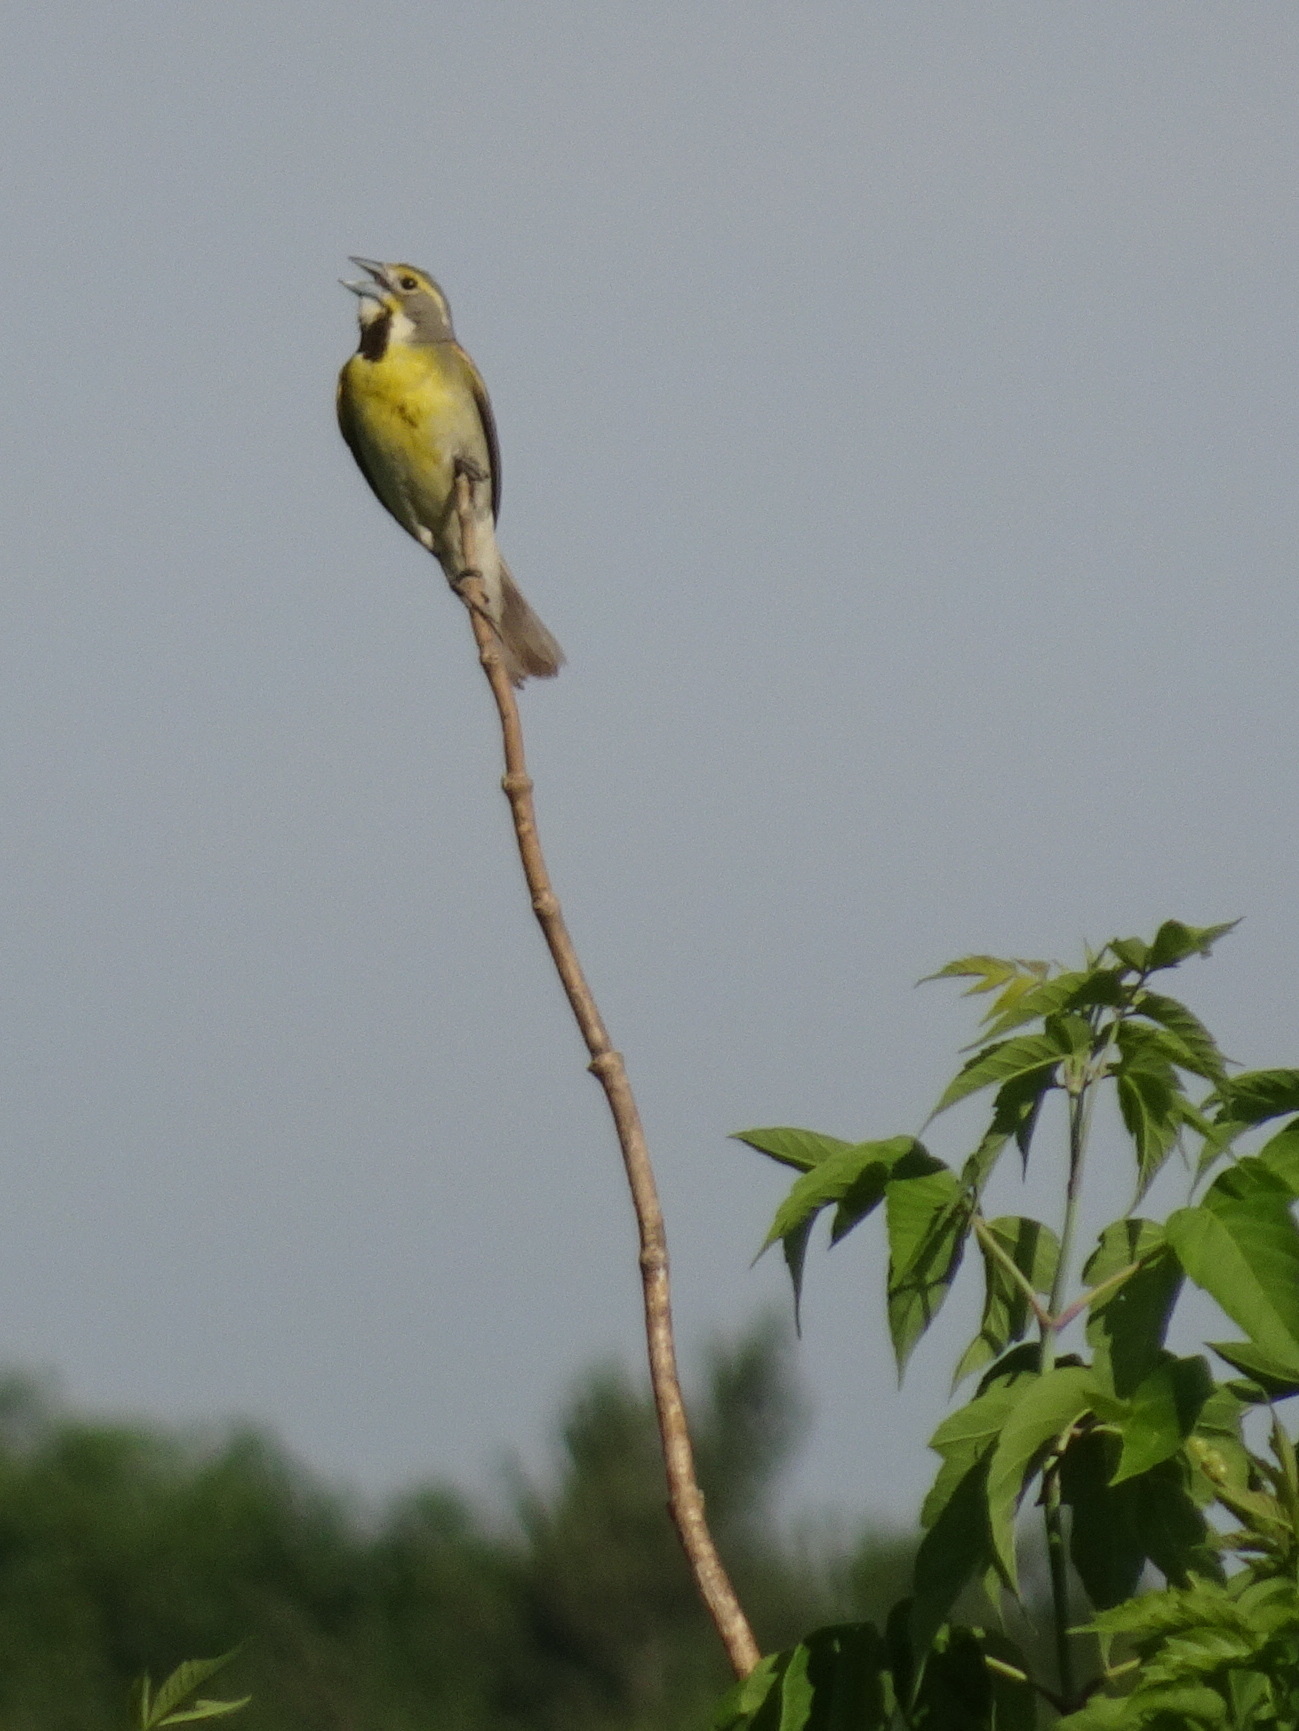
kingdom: Animalia
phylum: Chordata
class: Aves
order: Passeriformes
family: Cardinalidae
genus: Spiza
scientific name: Spiza americana
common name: Dickcissel
